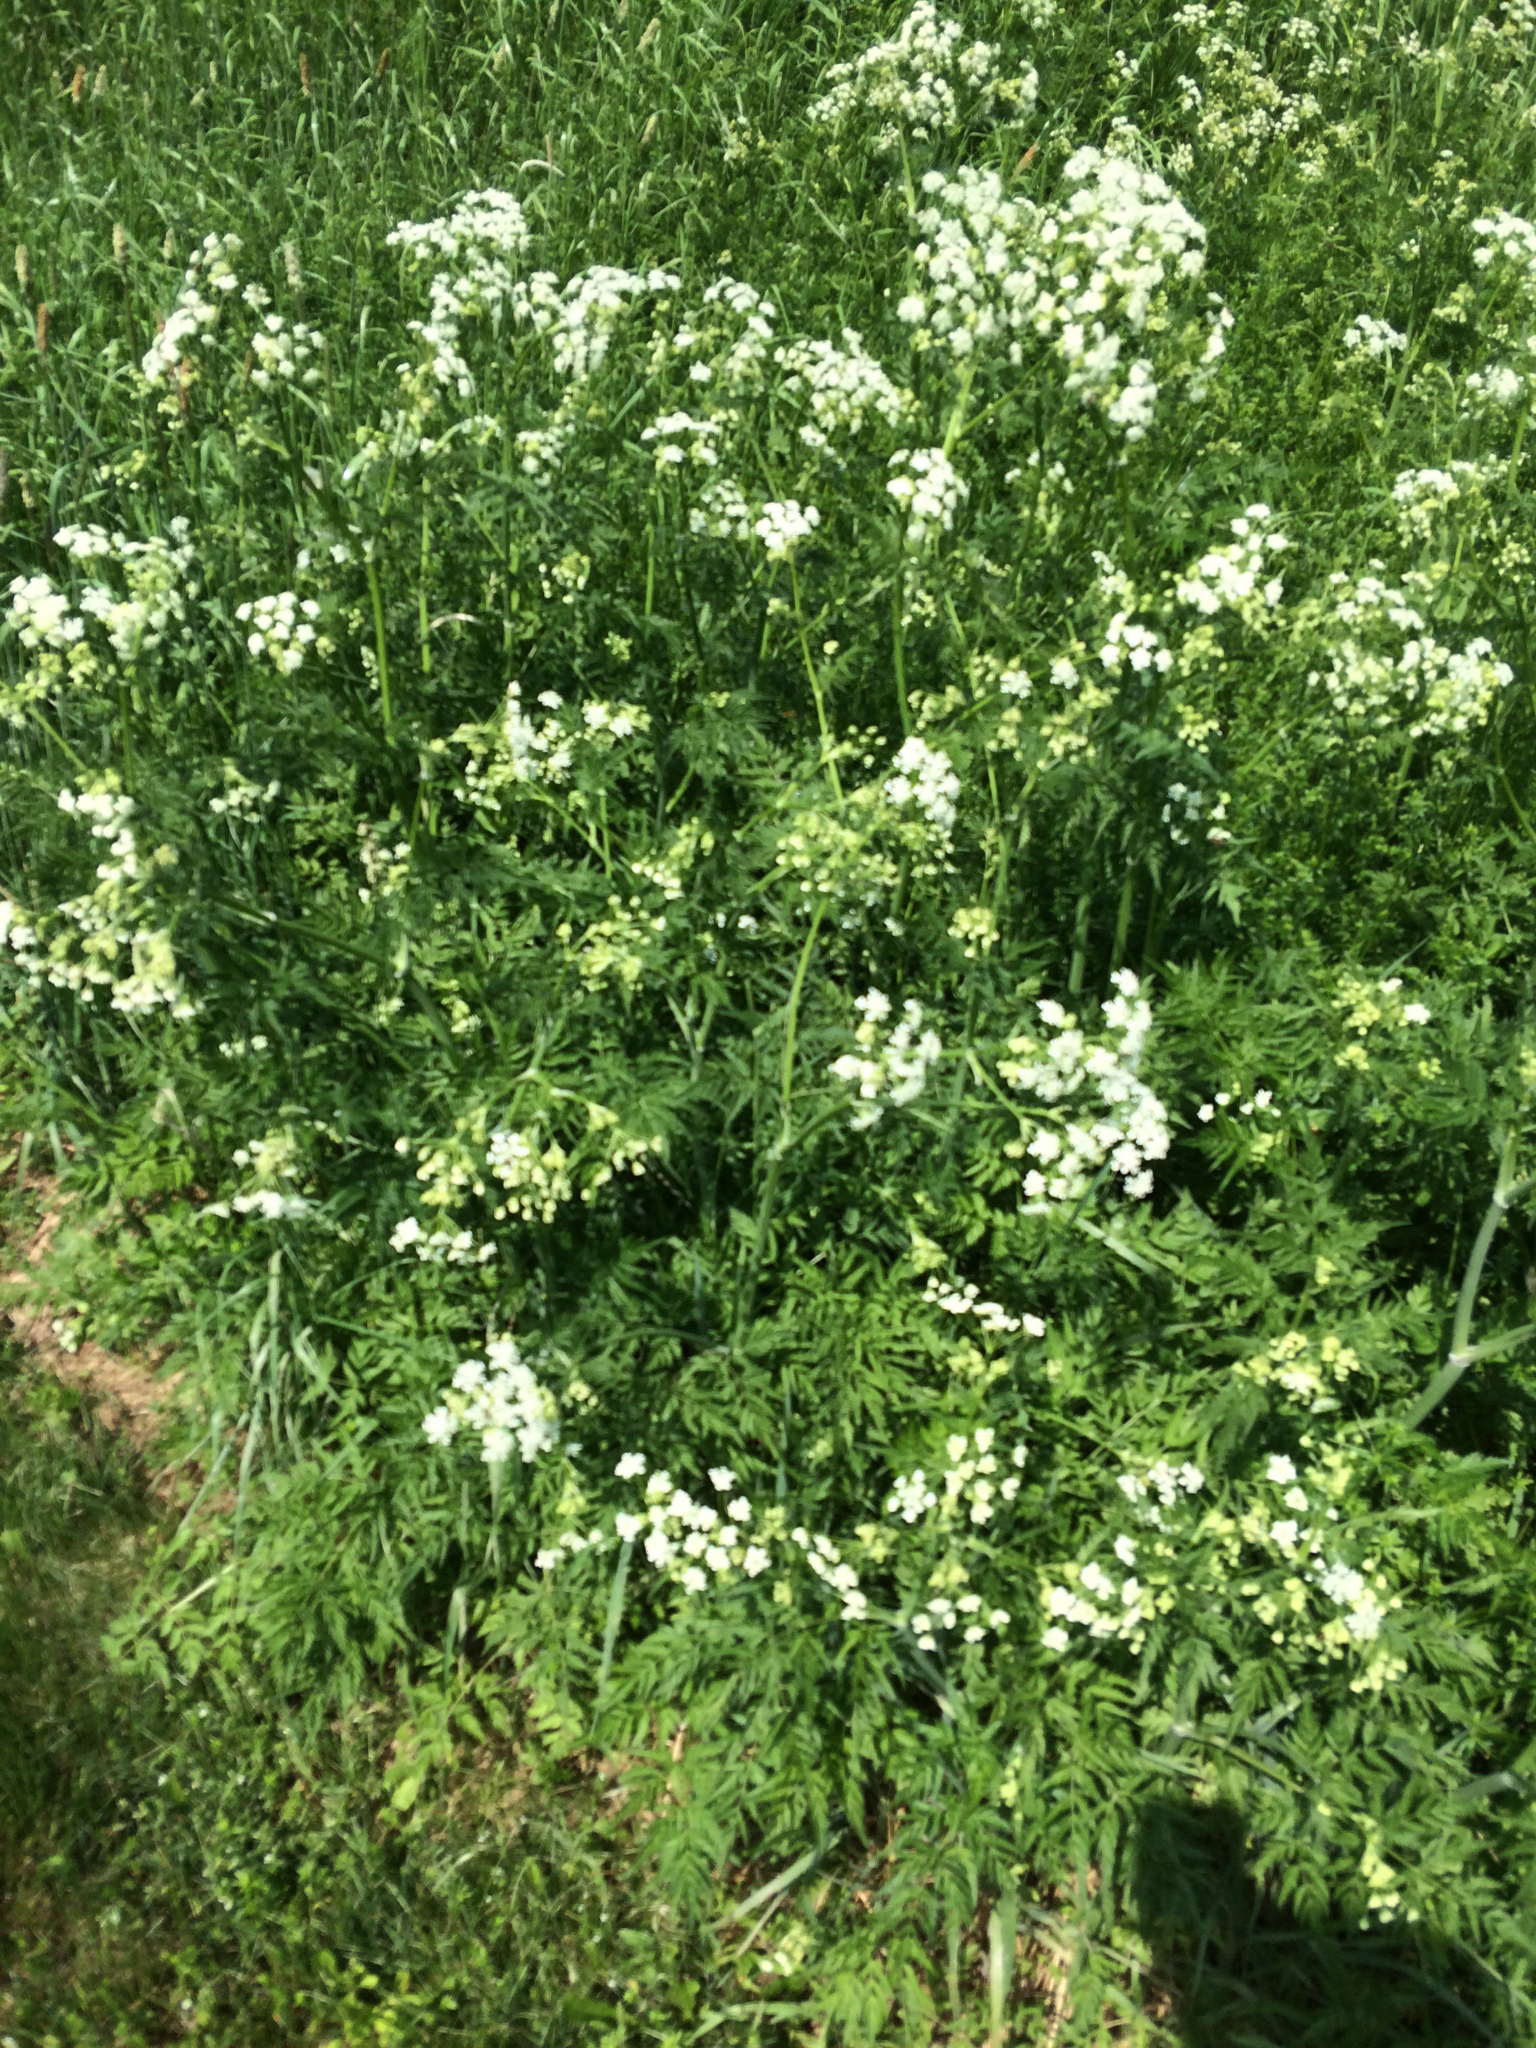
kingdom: Plantae
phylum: Tracheophyta
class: Magnoliopsida
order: Apiales
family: Apiaceae
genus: Anthriscus
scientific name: Anthriscus sylvestris
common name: Cow parsley
